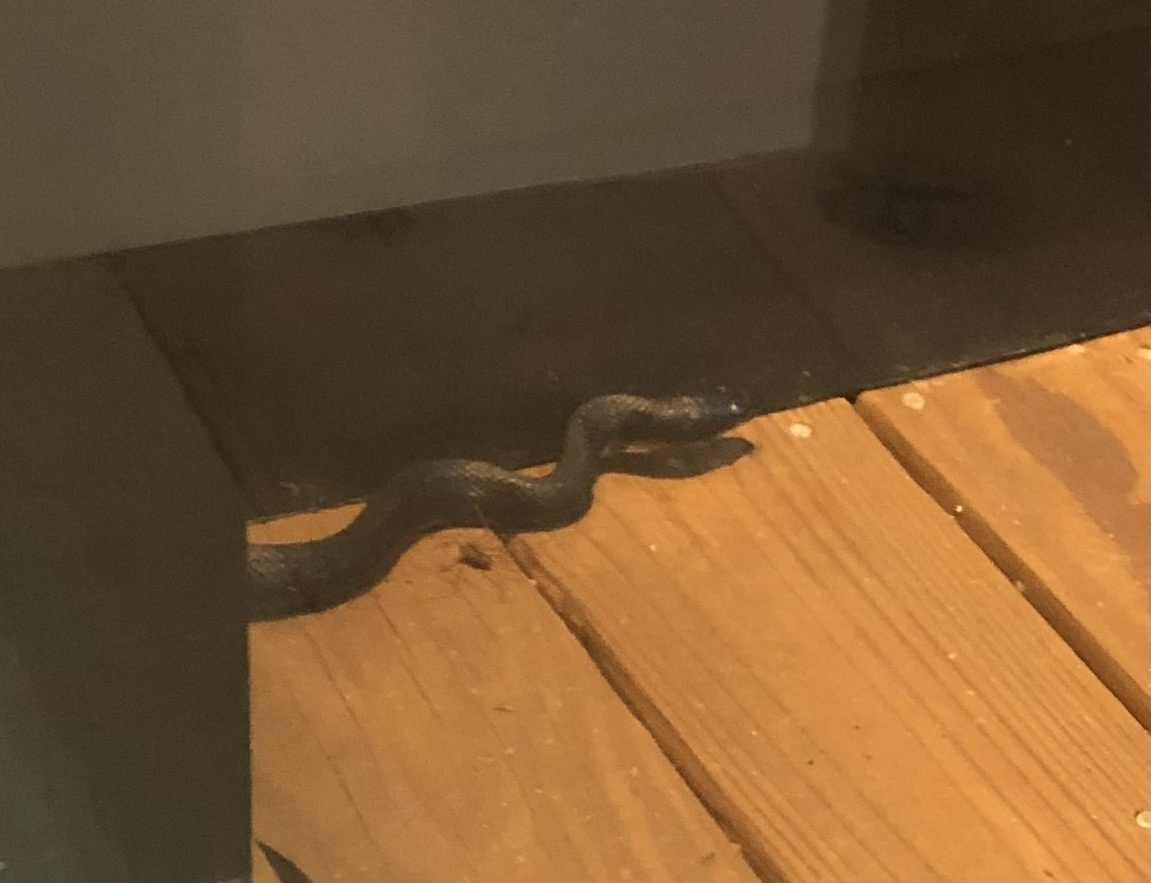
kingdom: Animalia
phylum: Chordata
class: Squamata
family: Colubridae
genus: Pantherophis
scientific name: Pantherophis spiloides
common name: Gray rat snake
